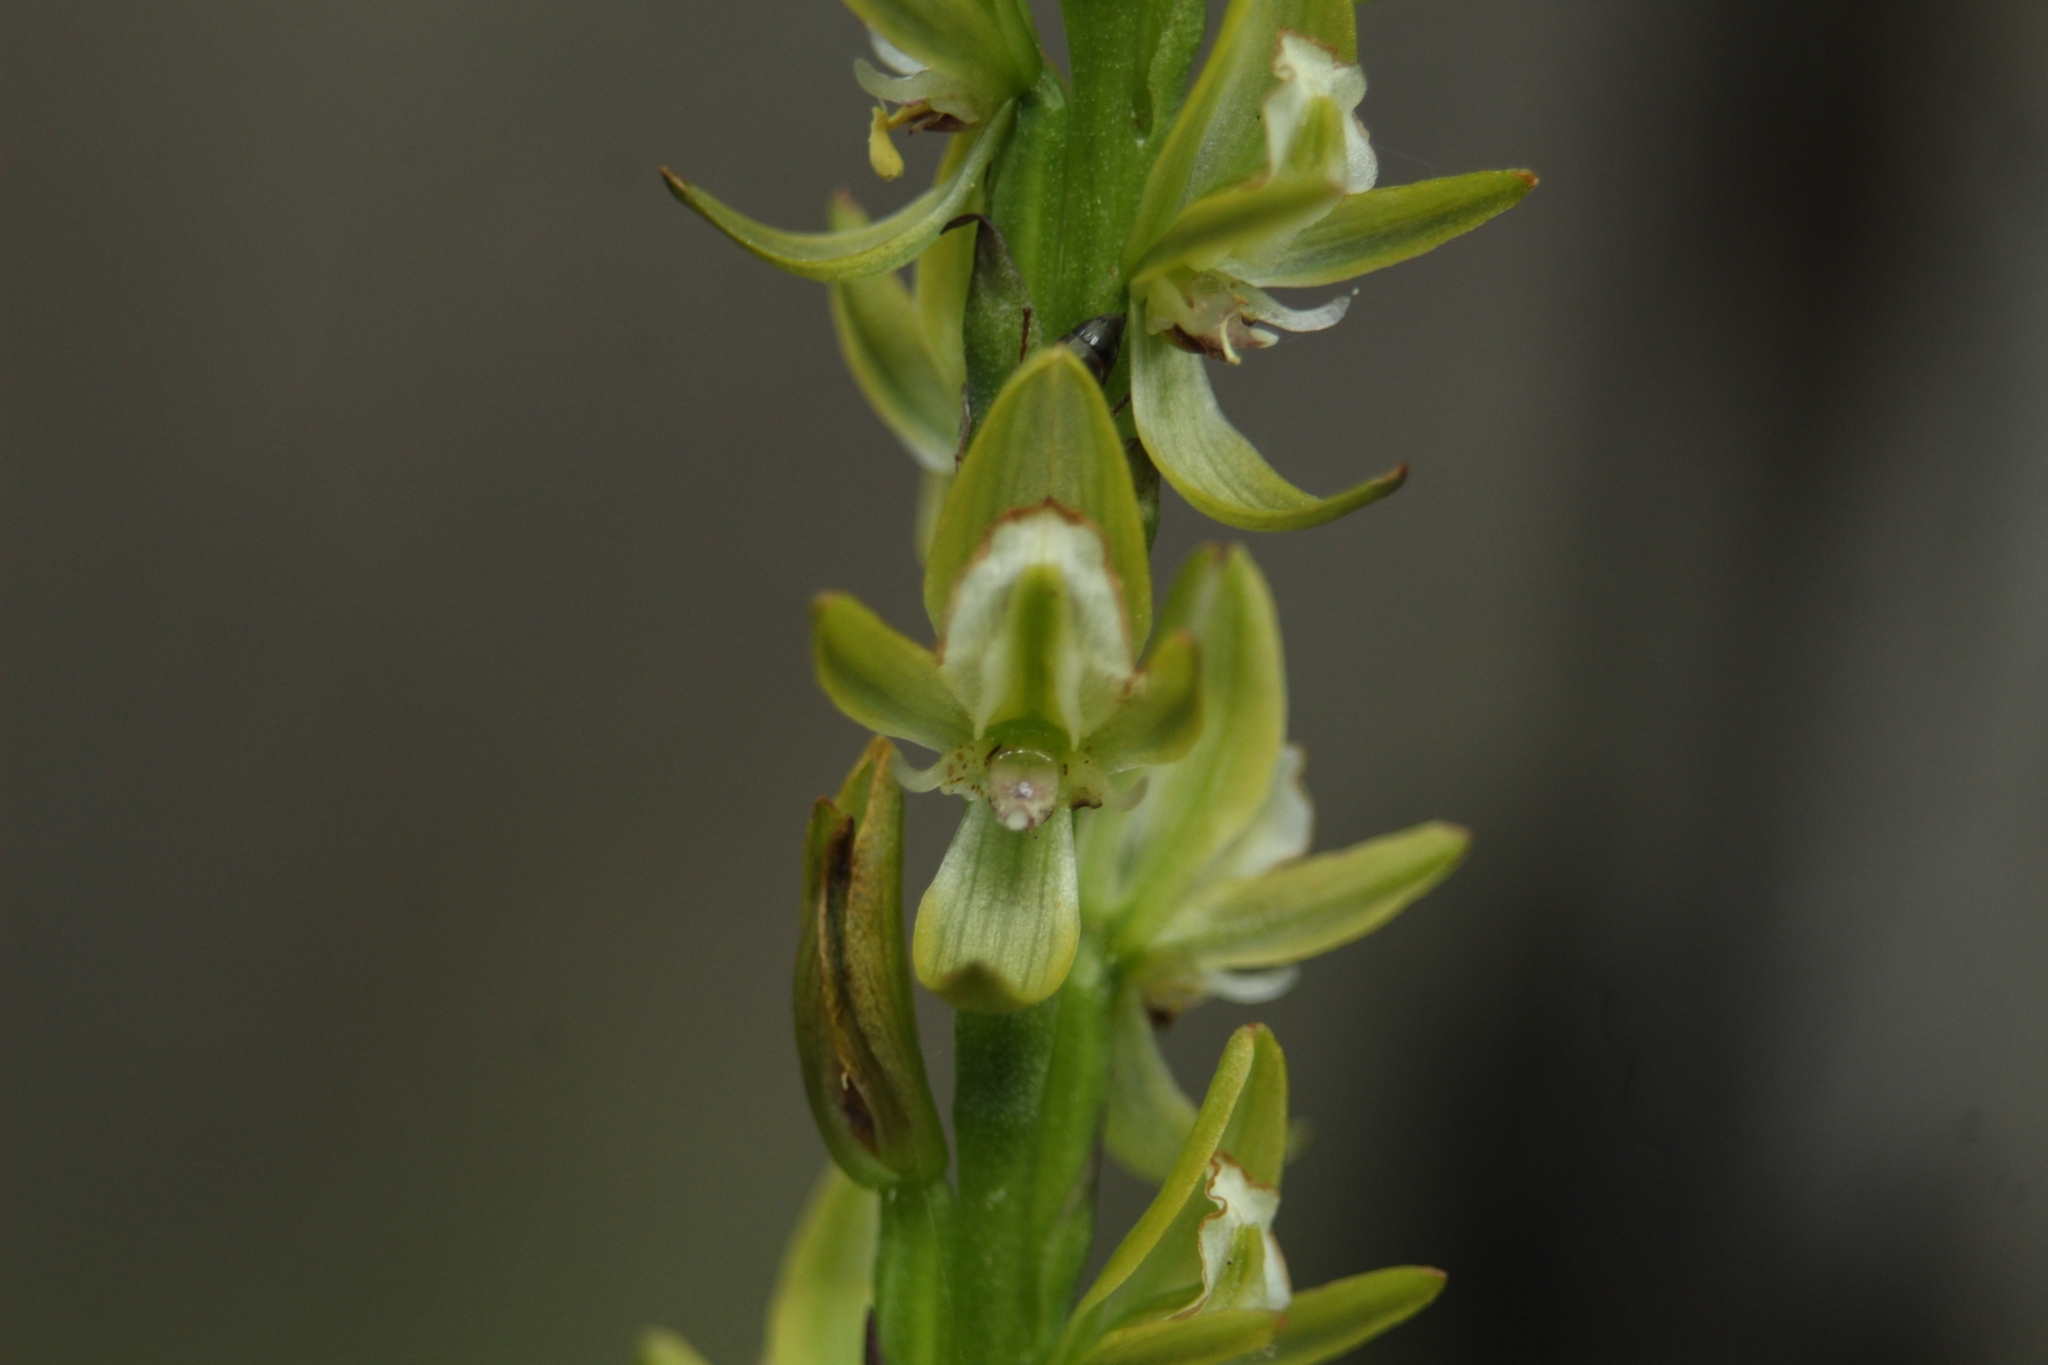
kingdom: Plantae
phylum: Tracheophyta
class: Liliopsida
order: Asparagales
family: Orchidaceae
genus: Prasophyllum
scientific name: Prasophyllum elatum
